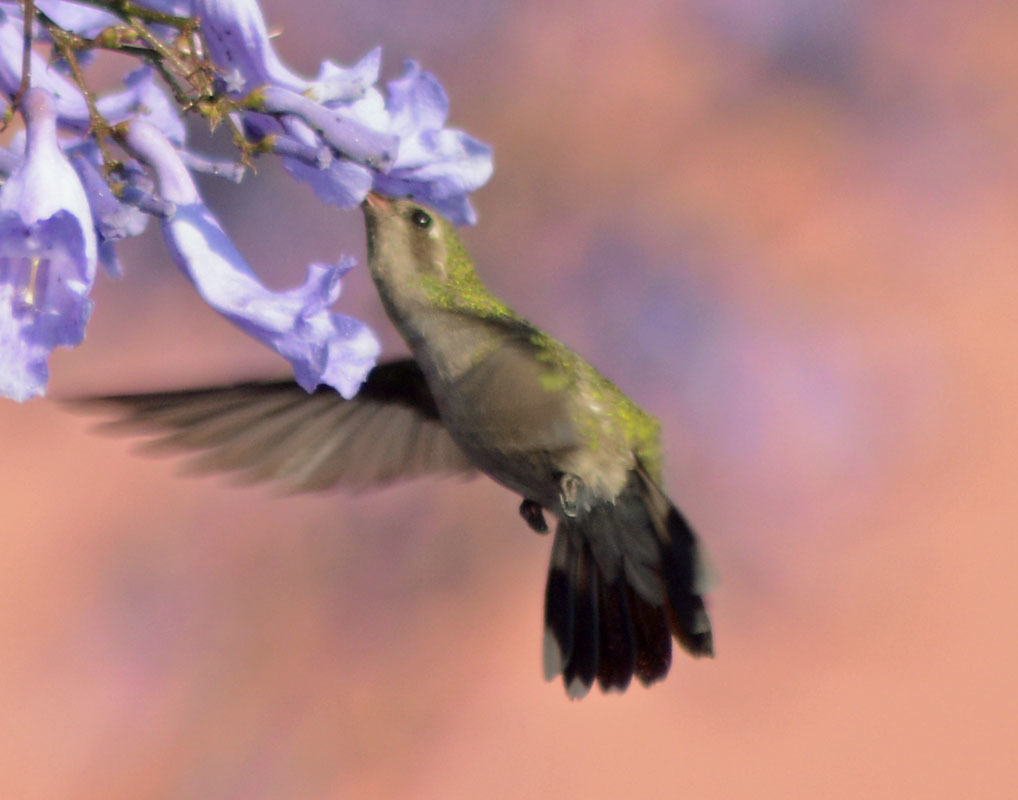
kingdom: Animalia
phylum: Chordata
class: Aves
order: Apodiformes
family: Trochilidae
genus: Cynanthus
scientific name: Cynanthus latirostris
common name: Broad-billed hummingbird
